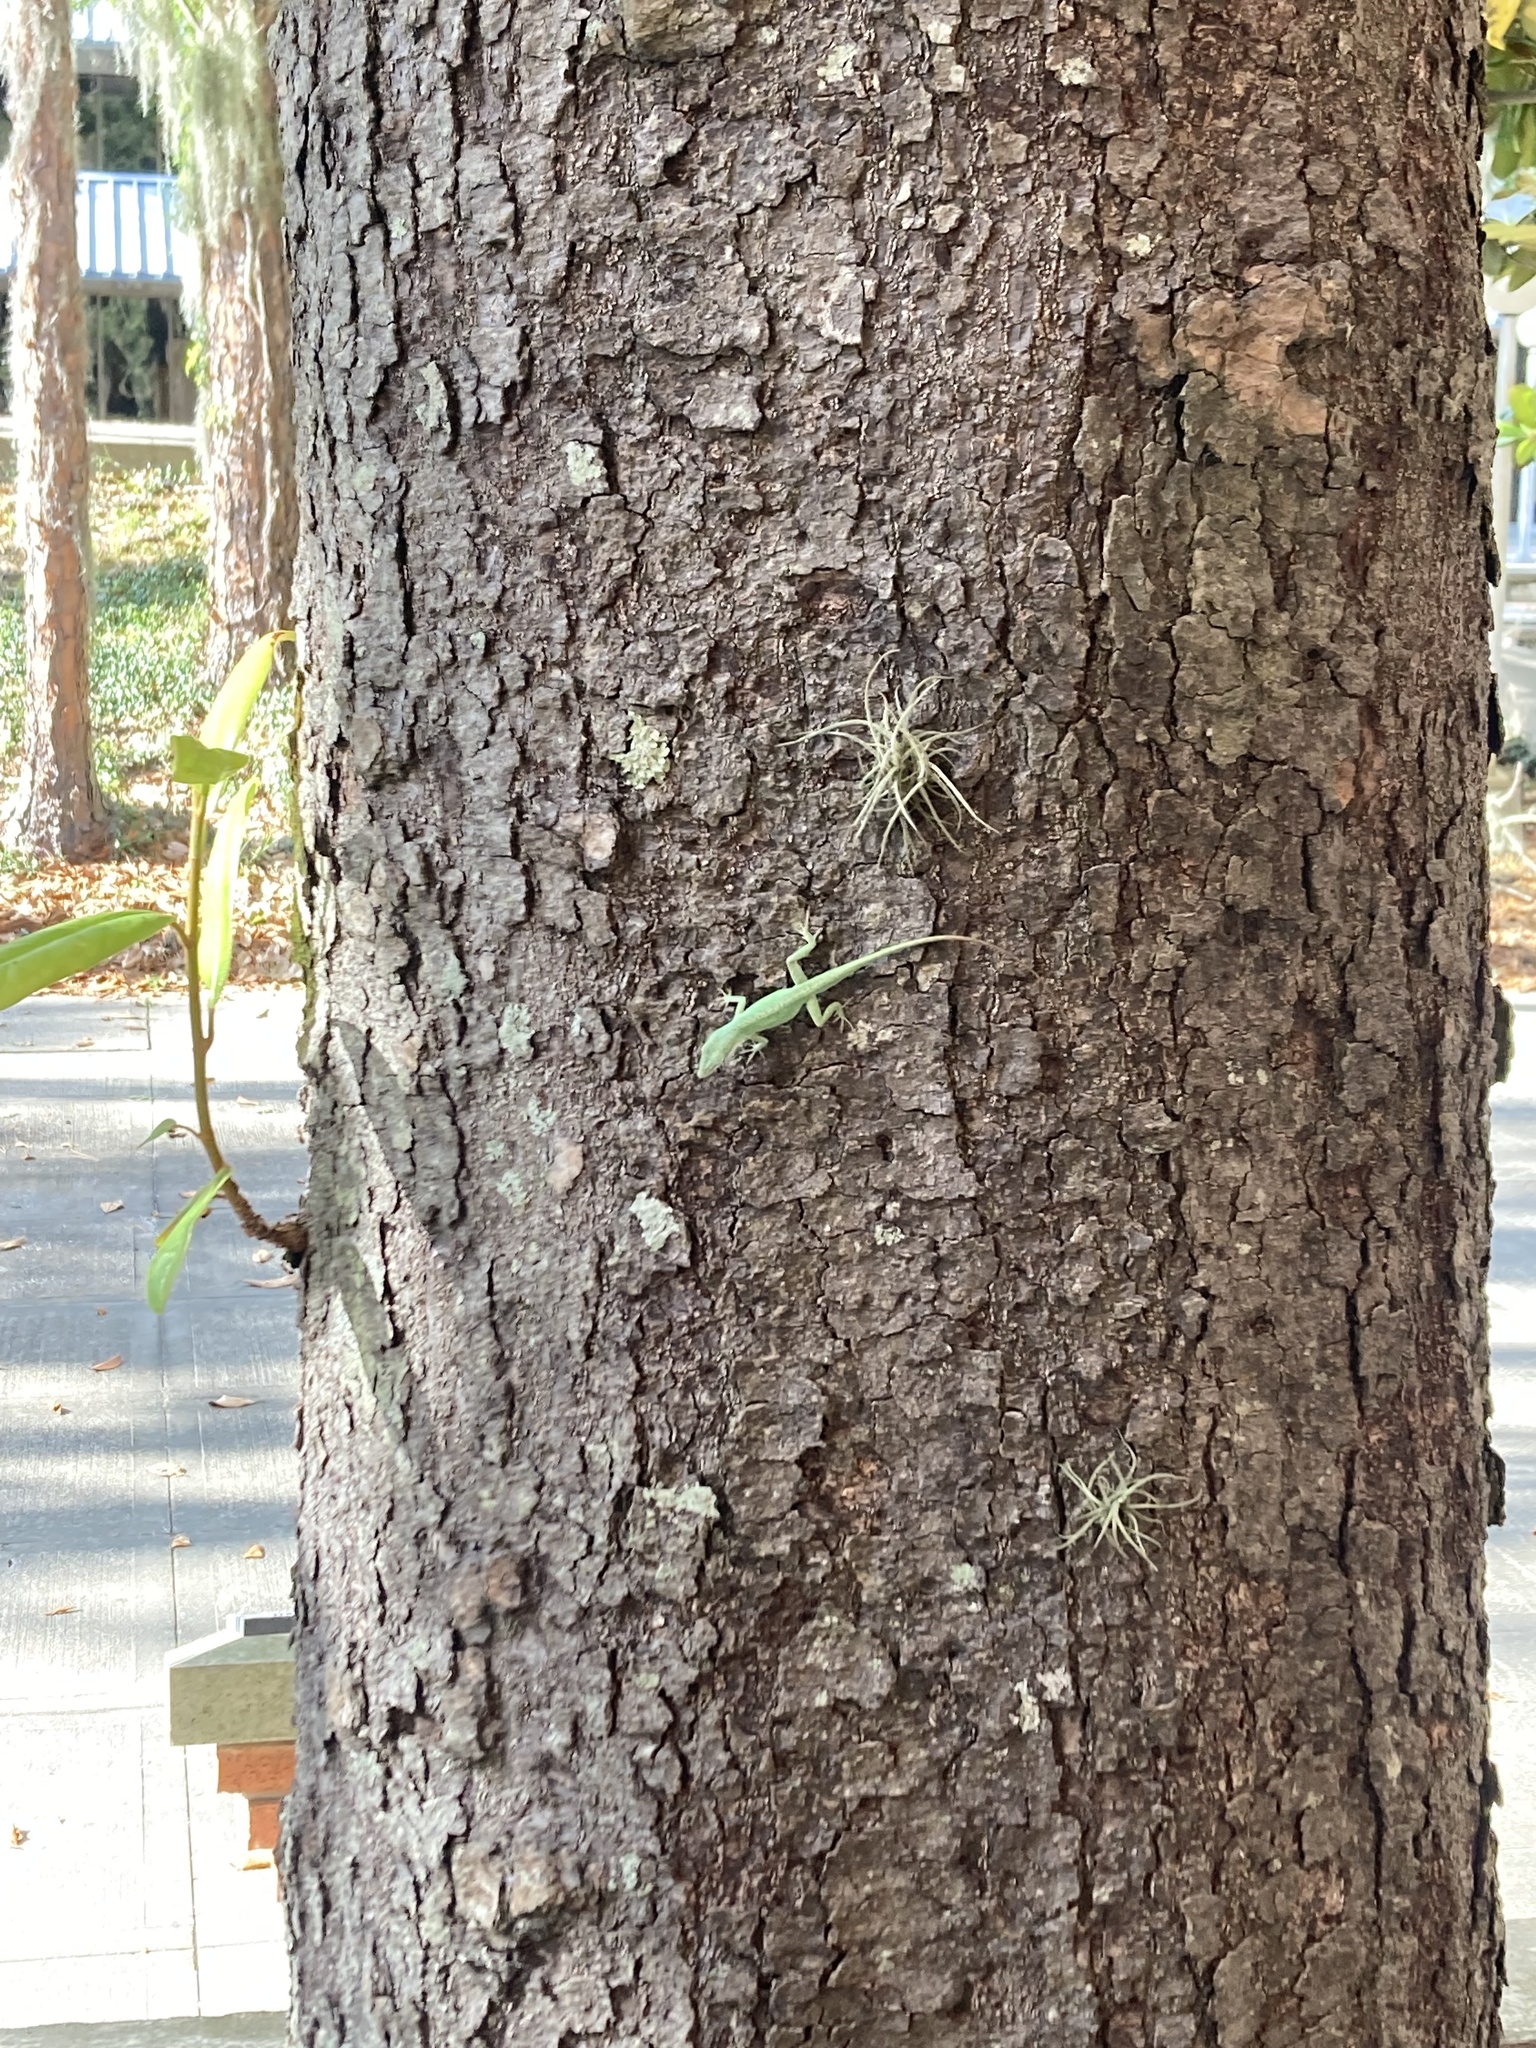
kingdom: Animalia
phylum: Chordata
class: Squamata
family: Dactyloidae
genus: Anolis
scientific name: Anolis carolinensis
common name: Green anole
